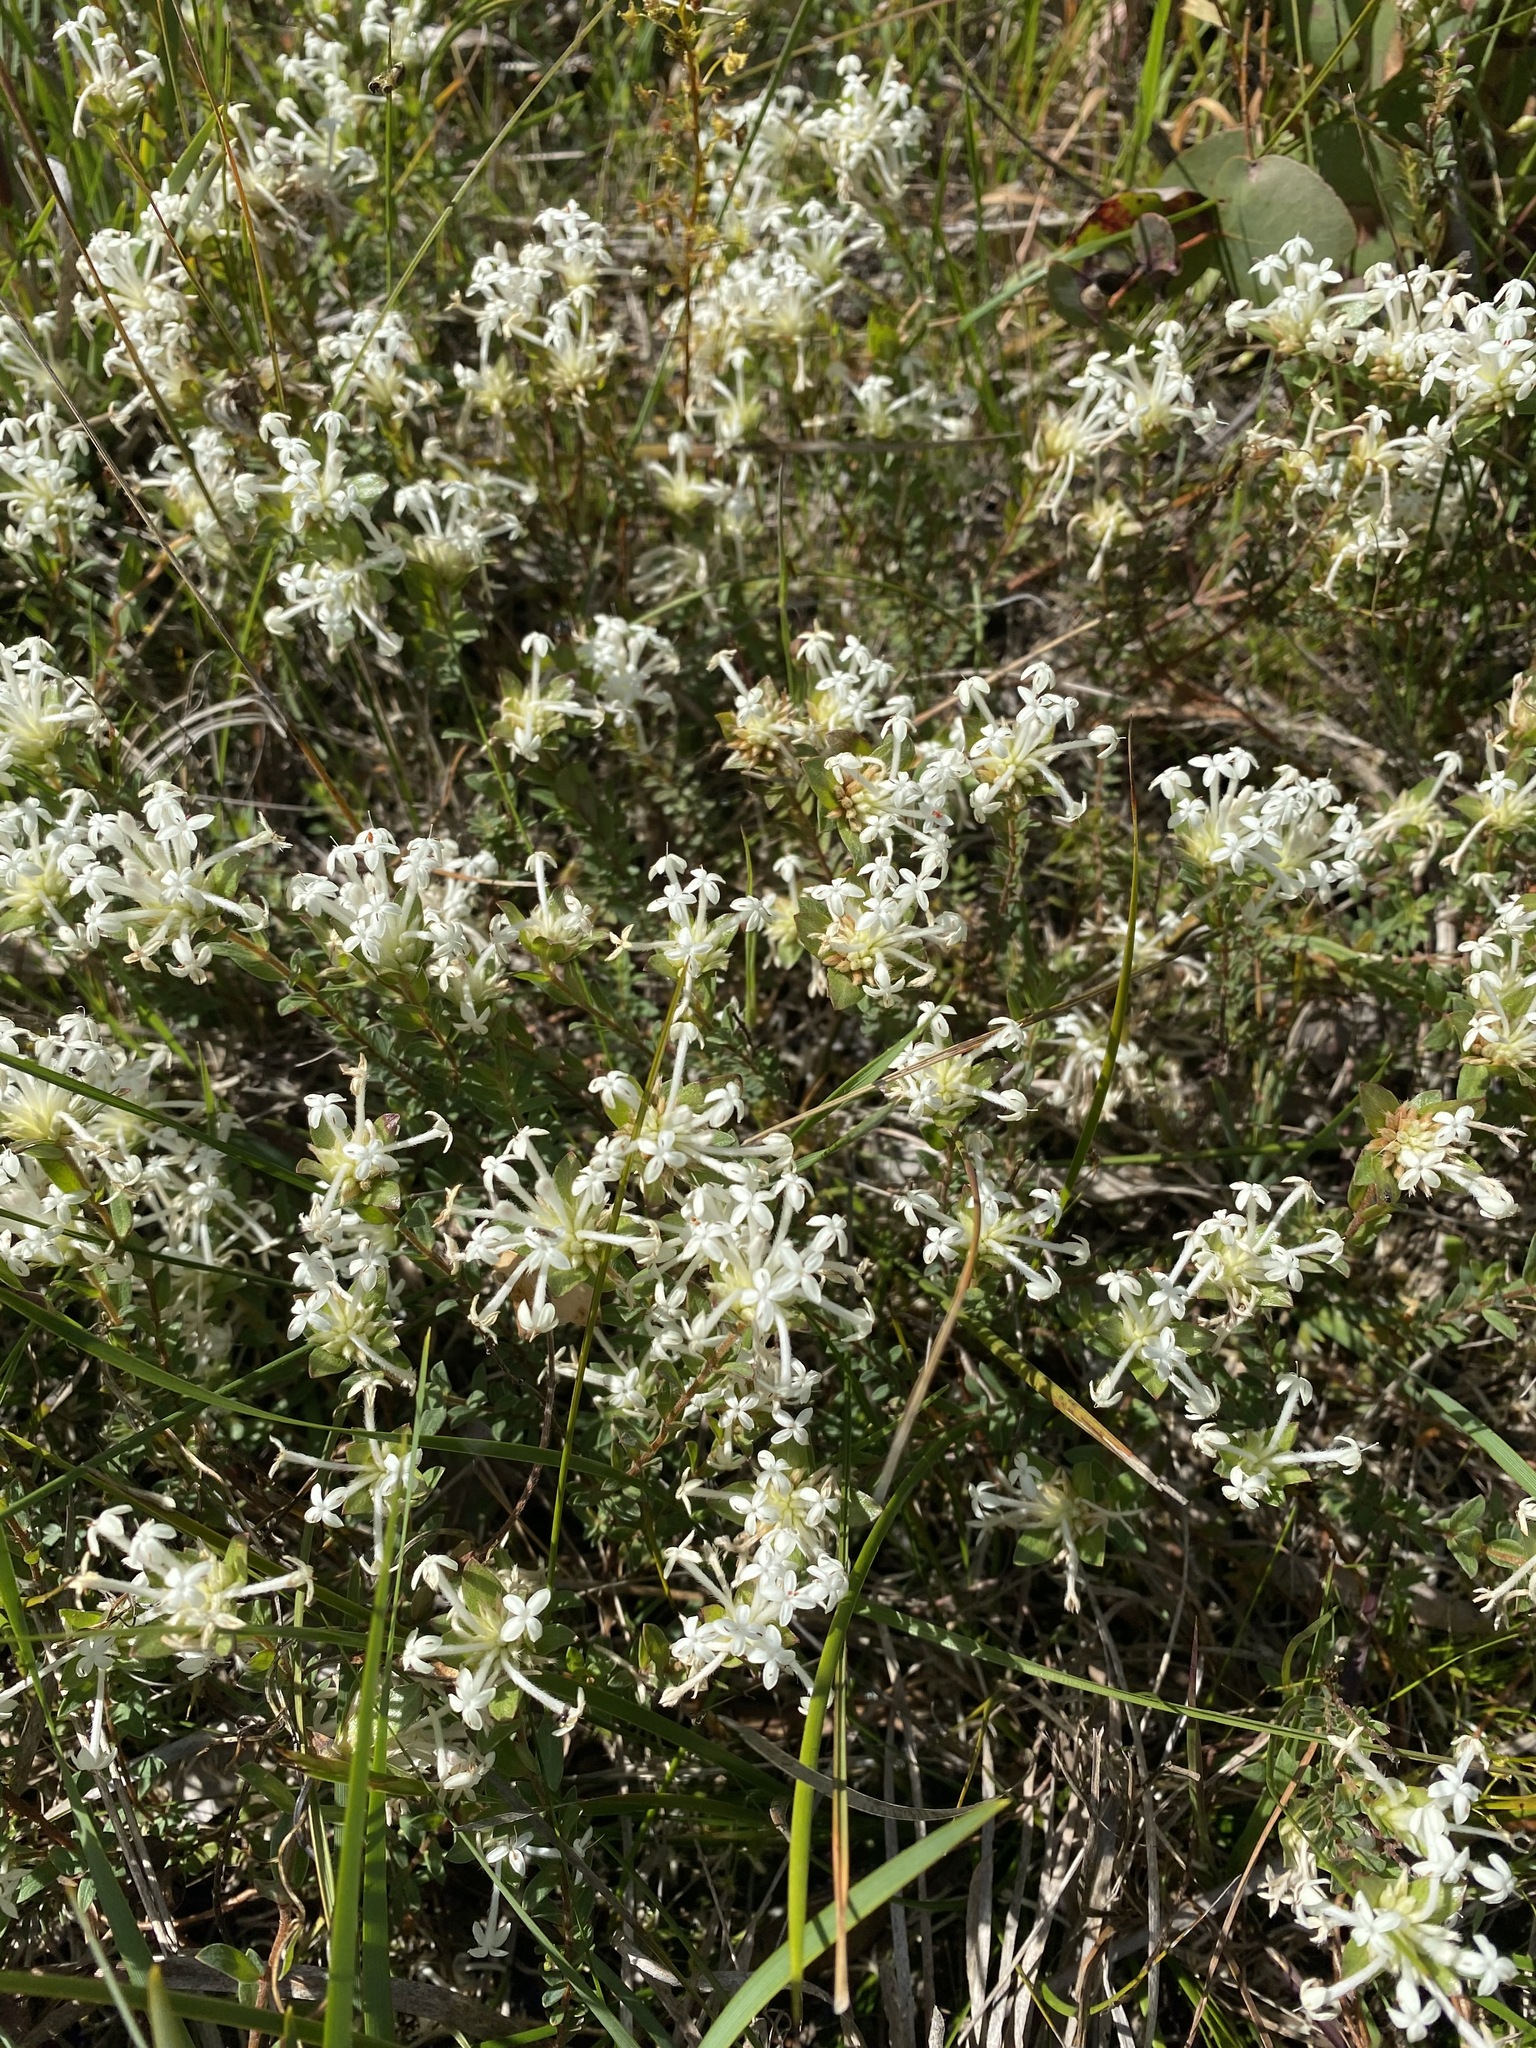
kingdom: Plantae
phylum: Tracheophyta
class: Magnoliopsida
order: Malvales
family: Thymelaeaceae
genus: Pimelea
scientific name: Pimelea humilis
